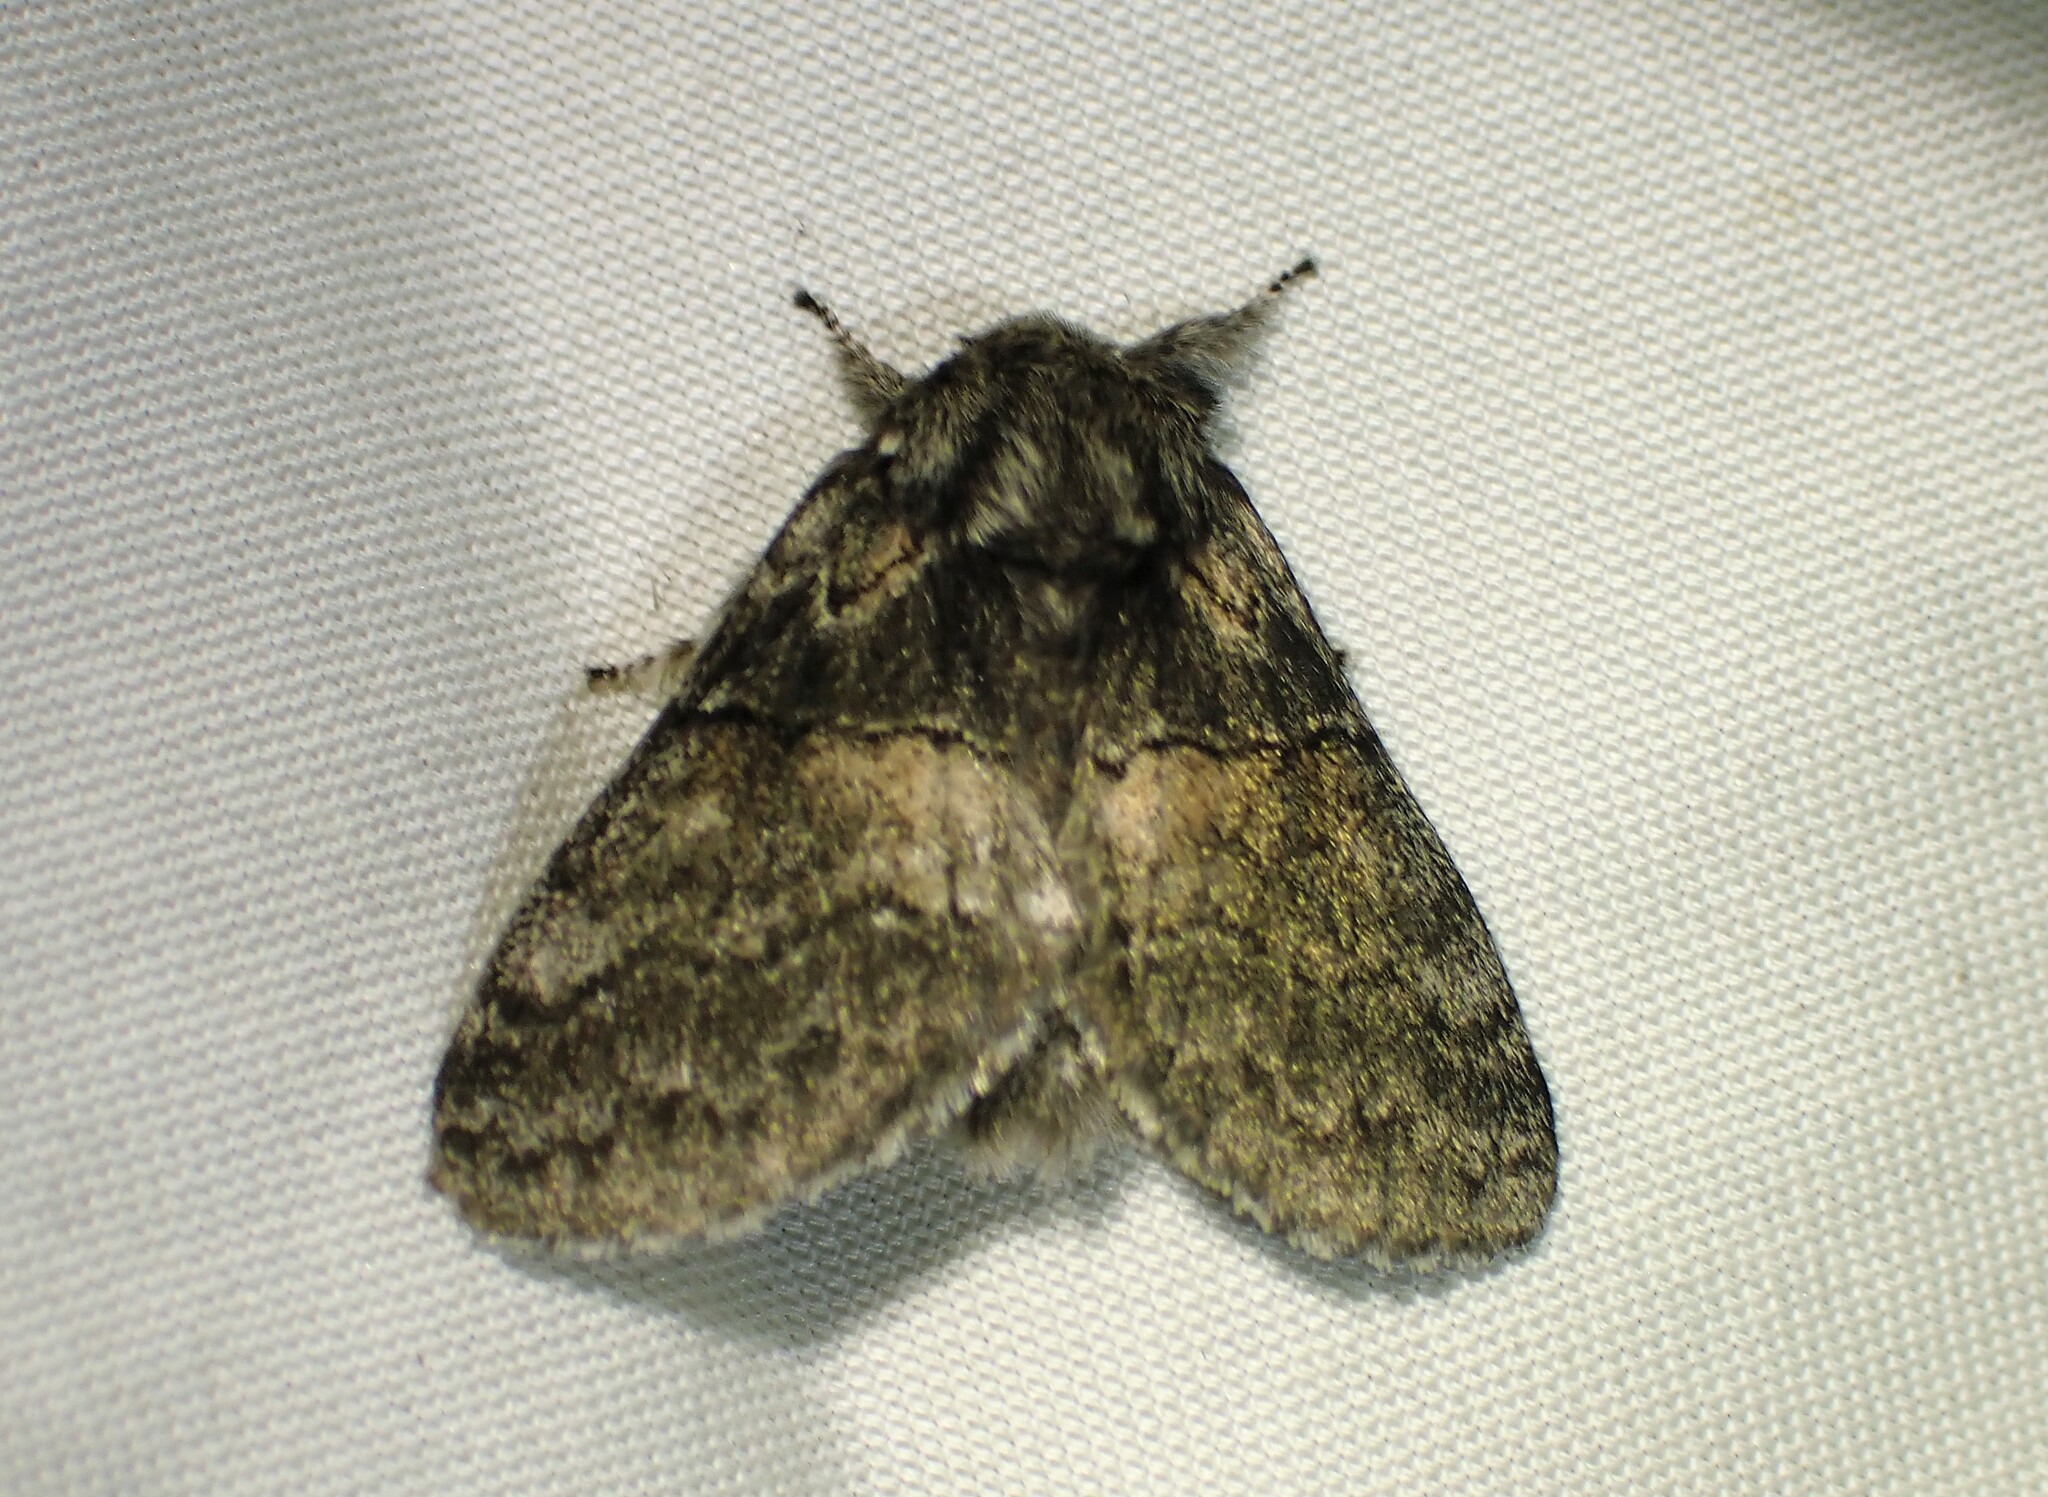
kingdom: Animalia
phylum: Arthropoda
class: Insecta
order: Lepidoptera
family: Notodontidae
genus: Gluphisia
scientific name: Gluphisia septentrionis
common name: Common gluphisia
